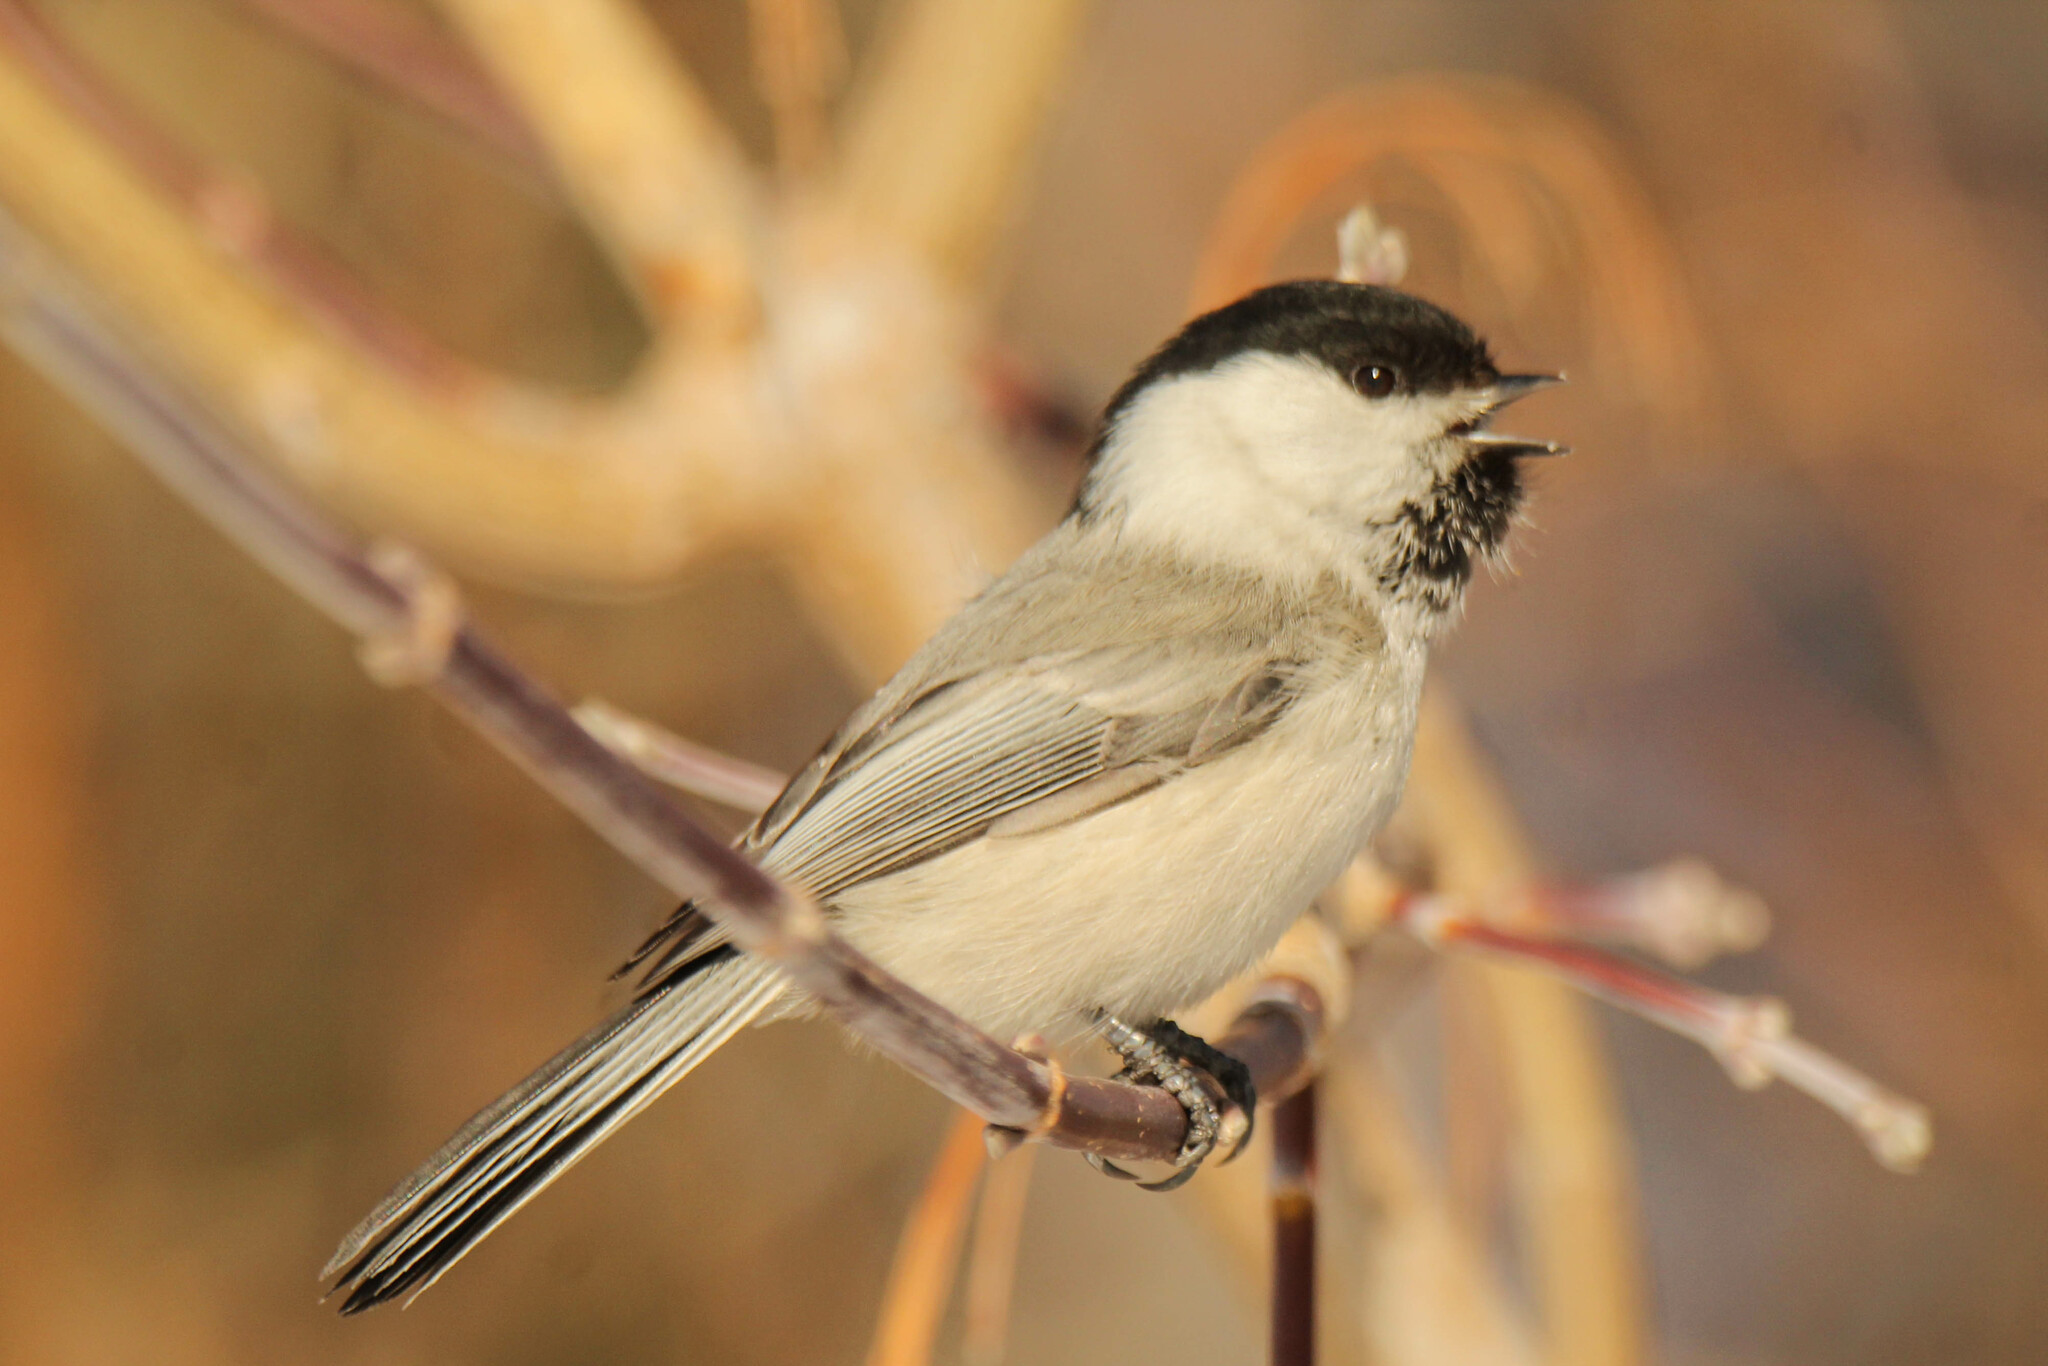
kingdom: Animalia
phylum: Chordata
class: Aves
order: Passeriformes
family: Paridae
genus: Poecile
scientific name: Poecile montanus
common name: Willow tit
